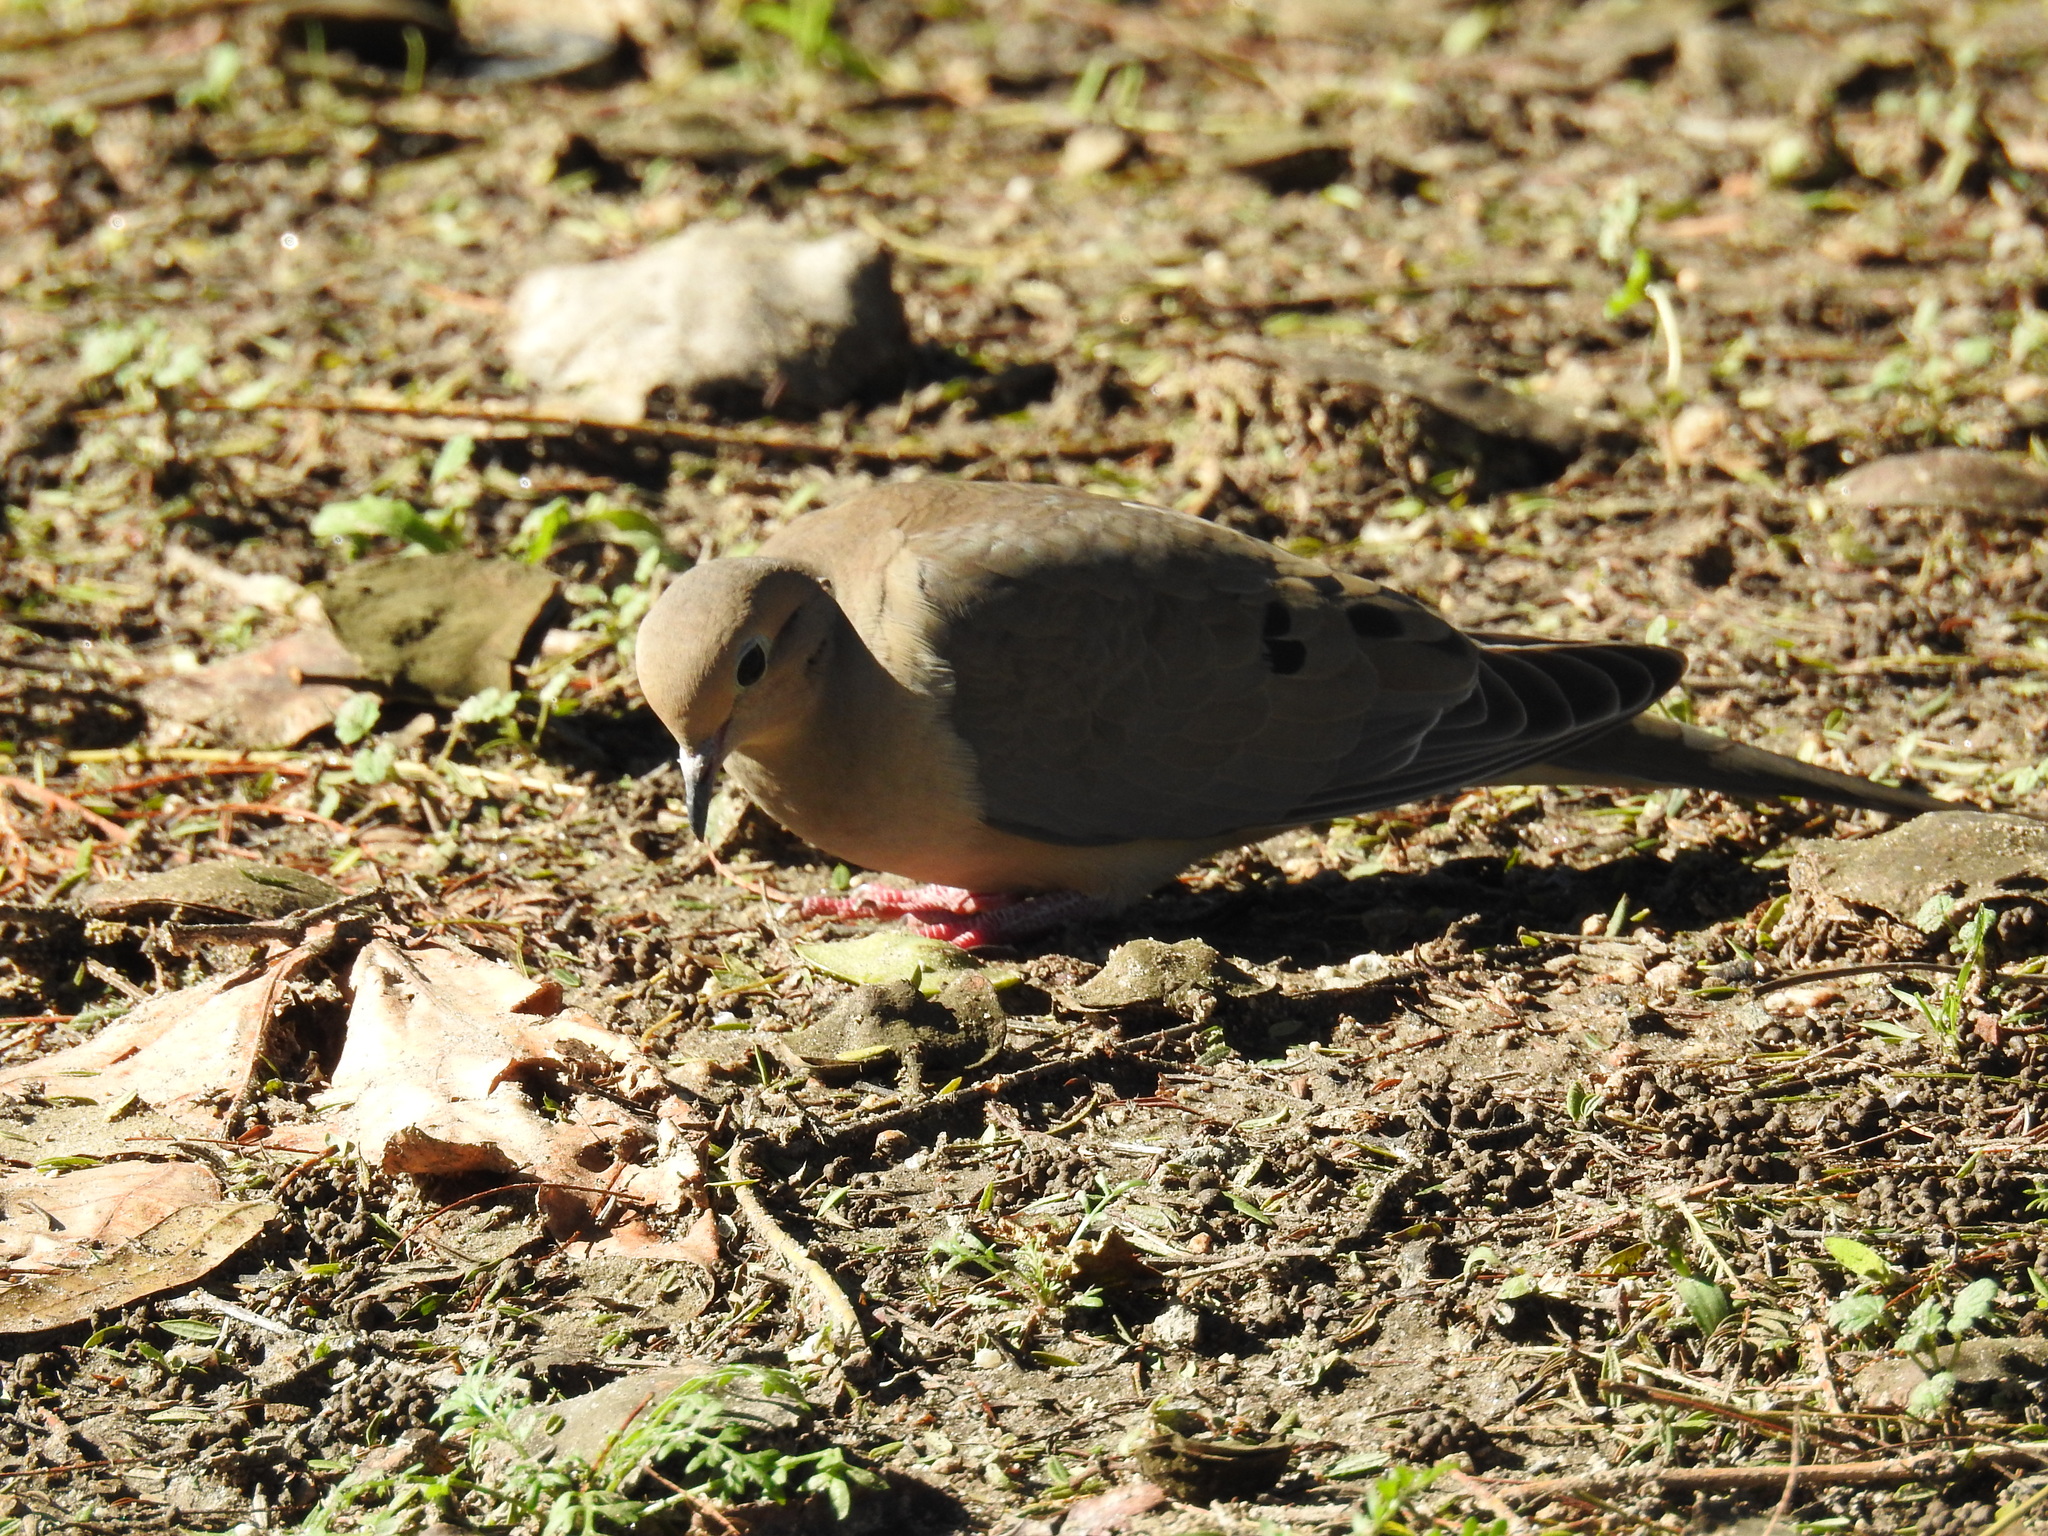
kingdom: Animalia
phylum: Chordata
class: Aves
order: Columbiformes
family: Columbidae
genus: Zenaida
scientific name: Zenaida macroura
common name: Mourning dove
